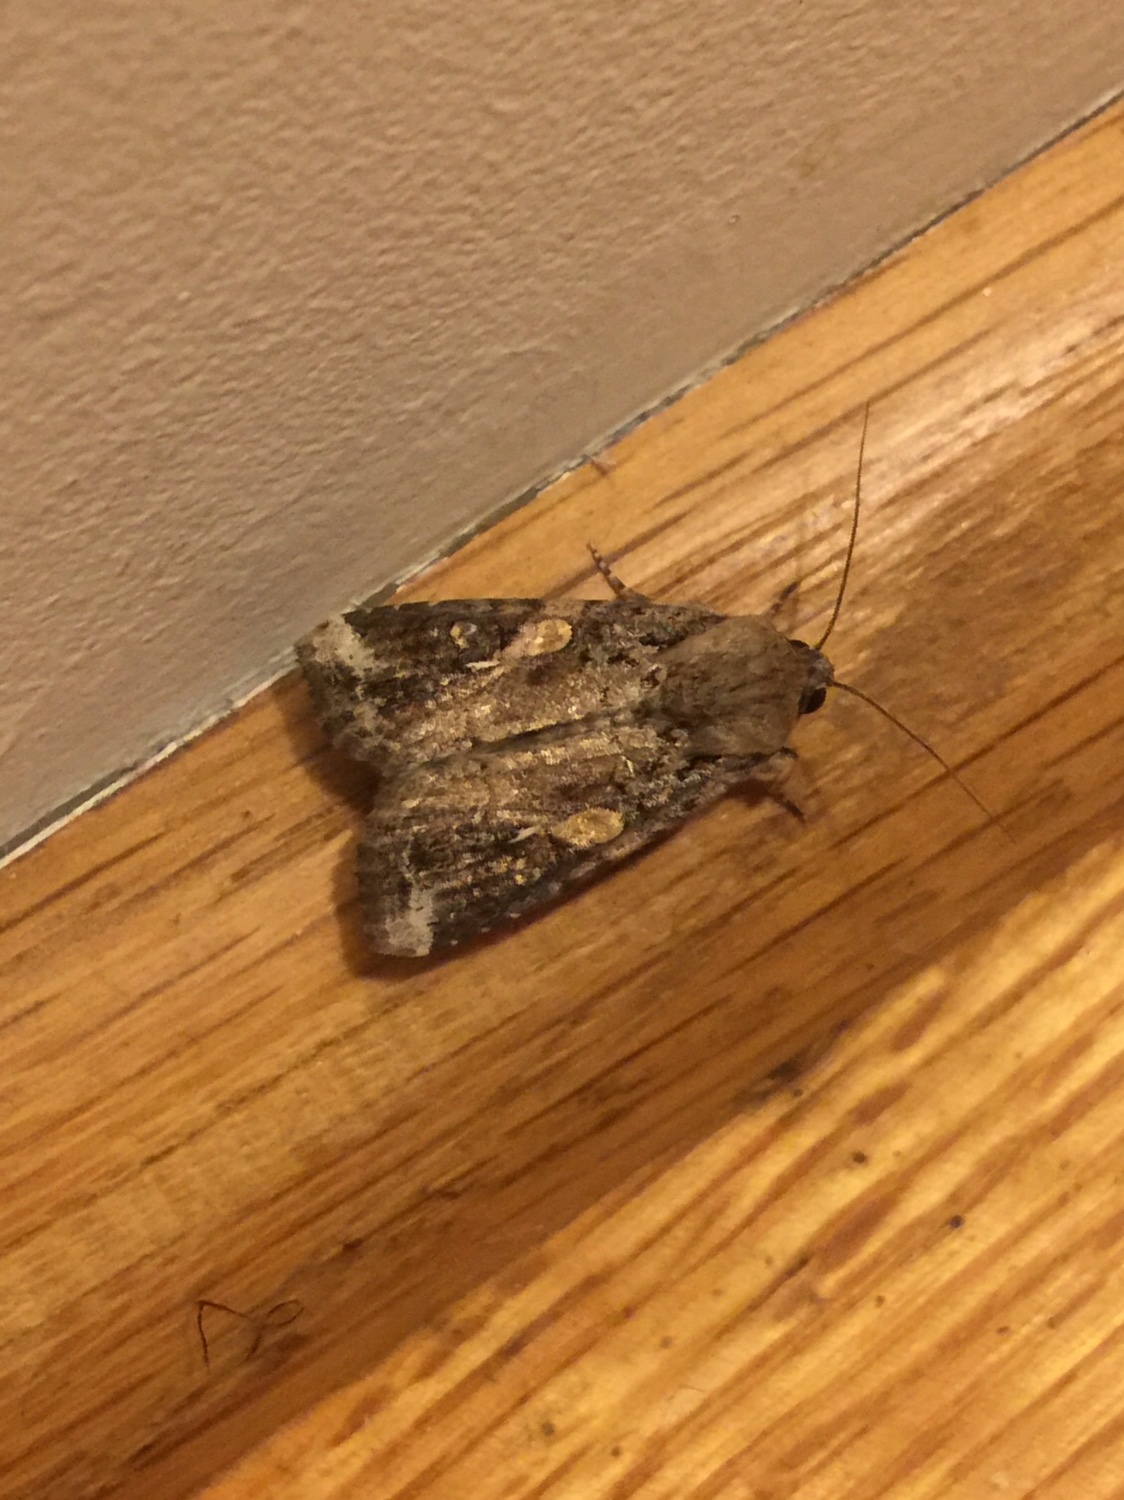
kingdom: Animalia
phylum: Arthropoda
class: Insecta
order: Lepidoptera
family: Noctuidae
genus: Spodoptera
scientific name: Spodoptera frugiperda
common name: Fall armyworm
